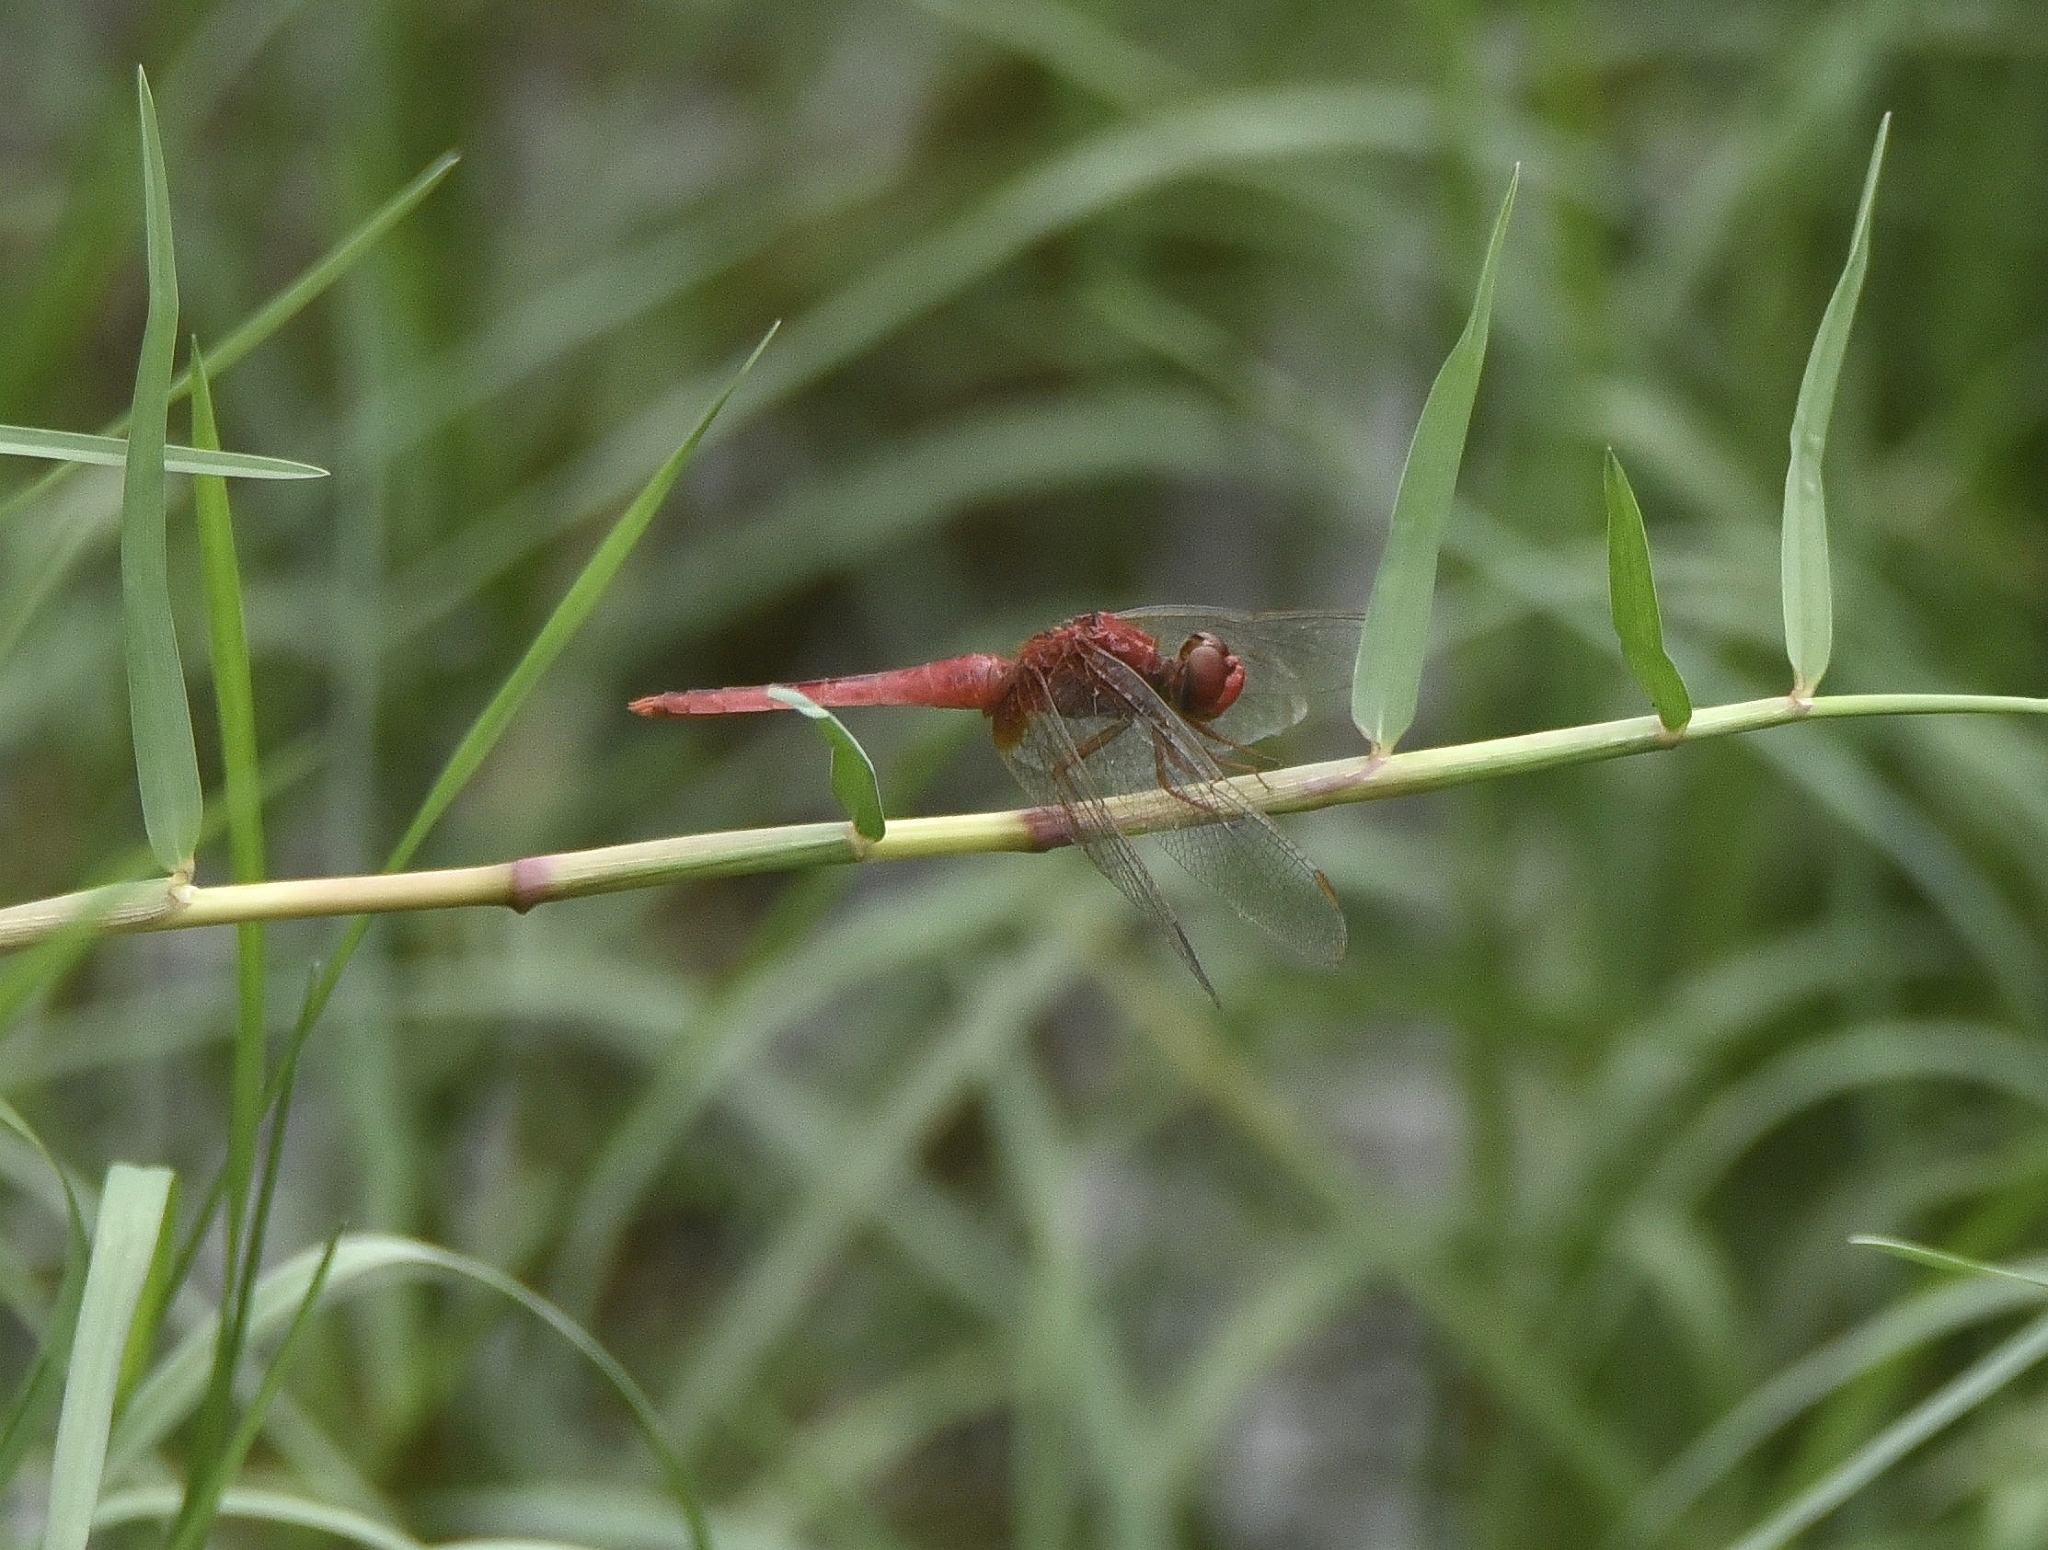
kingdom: Animalia
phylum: Arthropoda
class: Insecta
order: Odonata
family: Libellulidae
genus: Crocothemis
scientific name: Crocothemis servilia
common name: Scarlet skimmer
